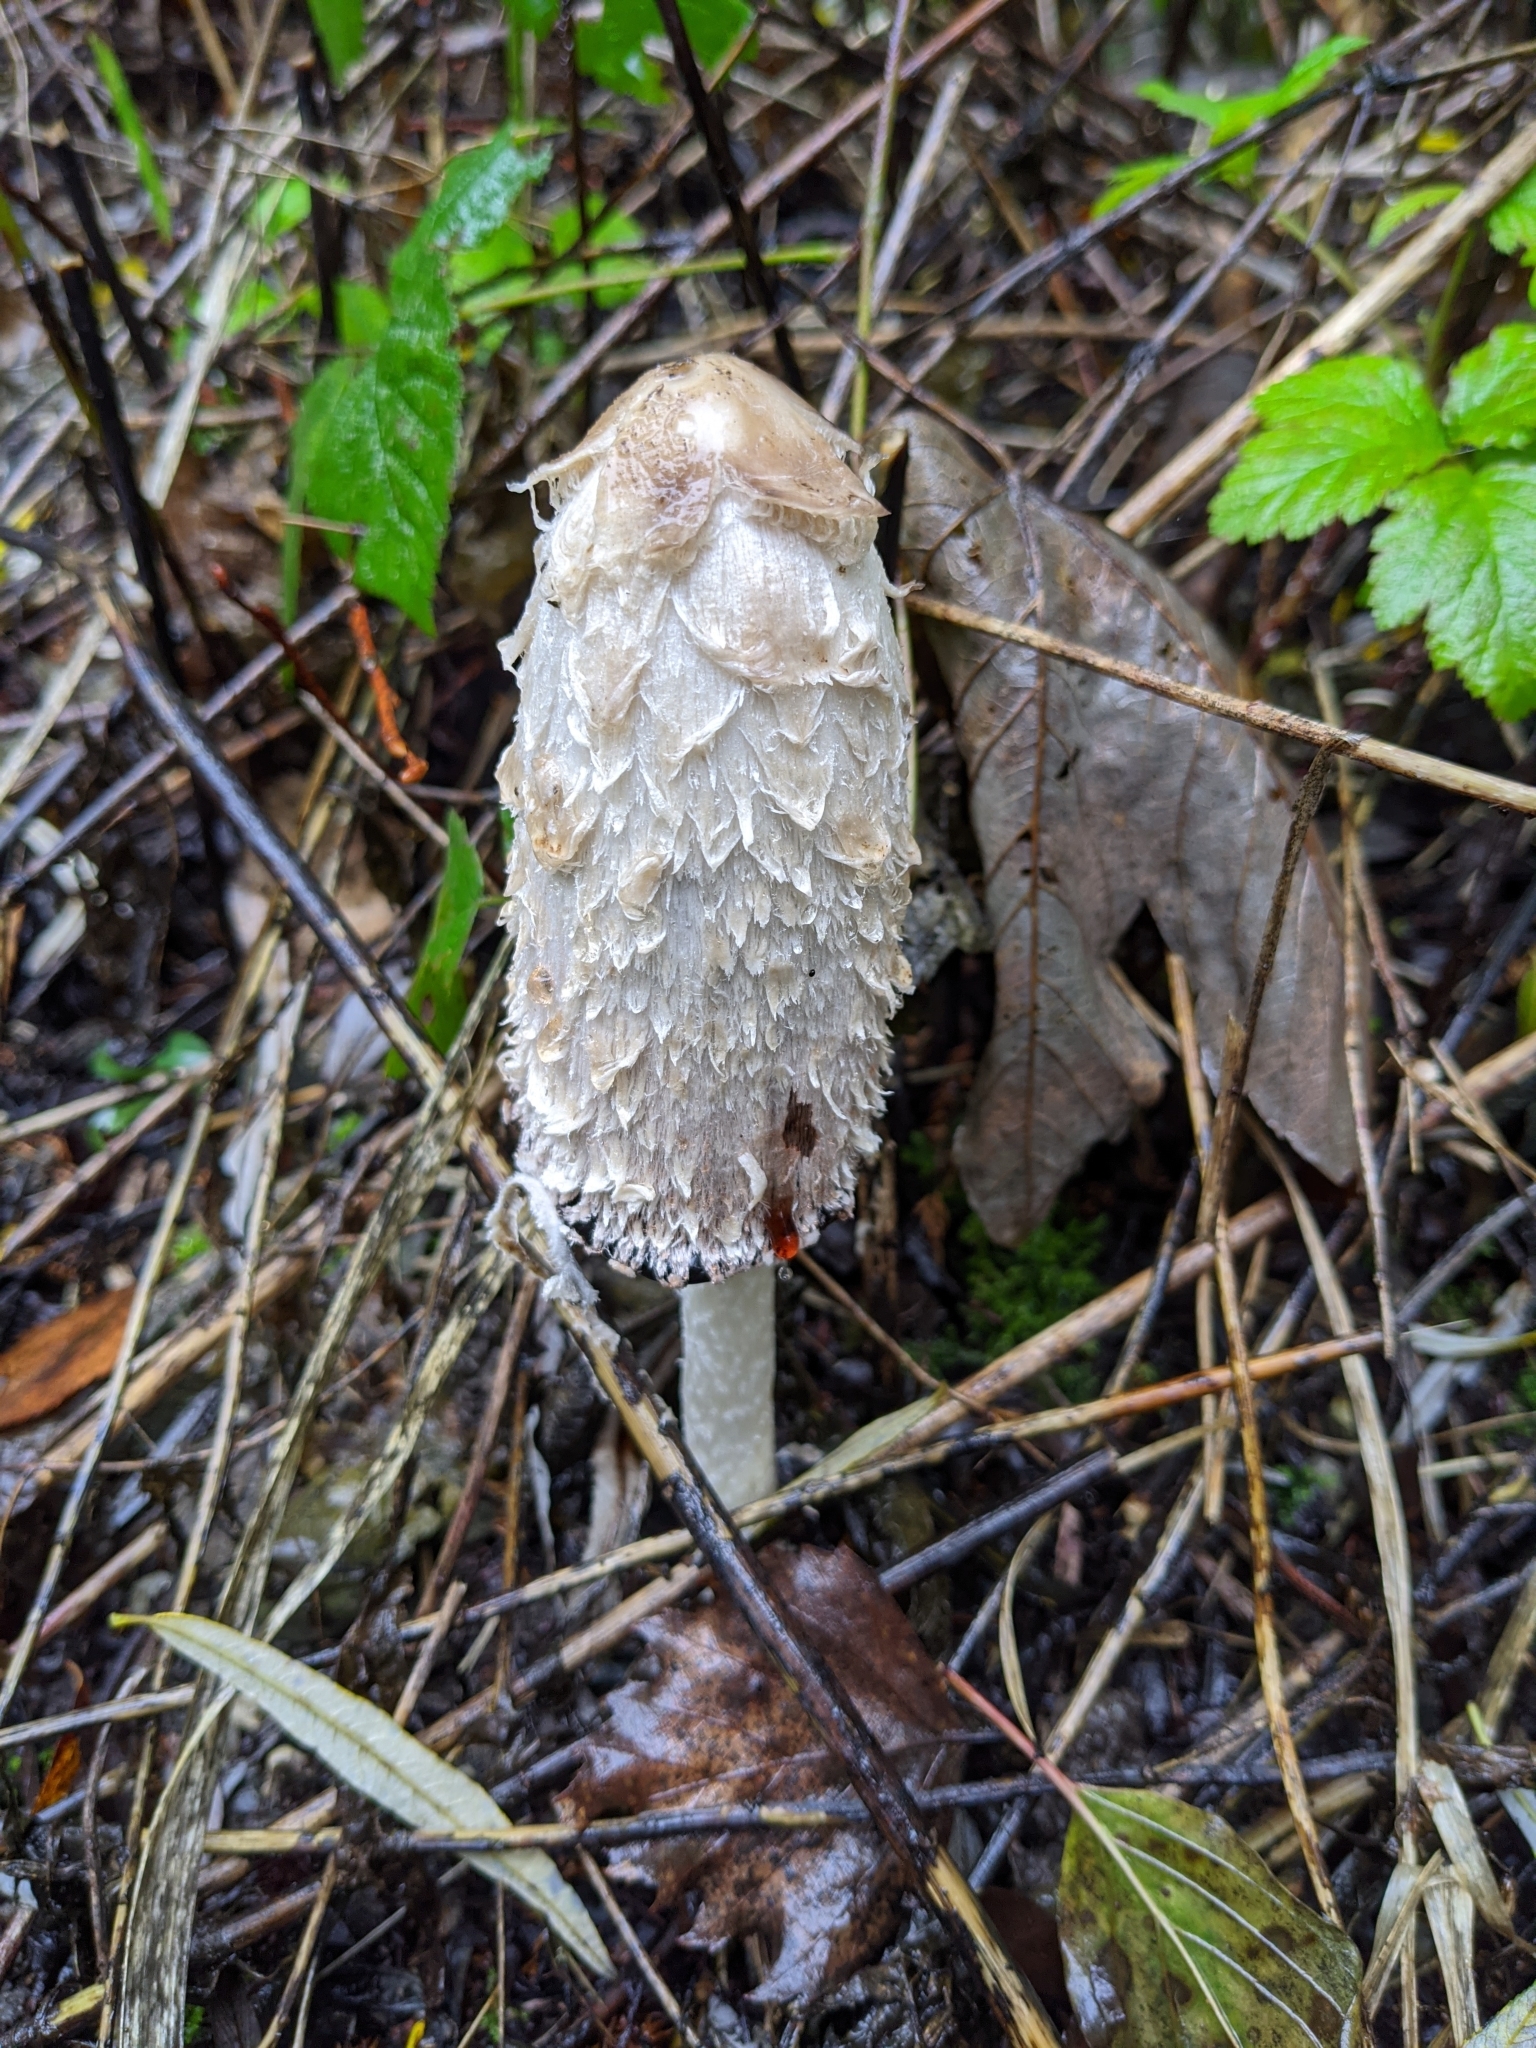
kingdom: Fungi
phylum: Basidiomycota
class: Agaricomycetes
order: Agaricales
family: Agaricaceae
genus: Coprinus
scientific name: Coprinus comatus
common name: Lawyer's wig
